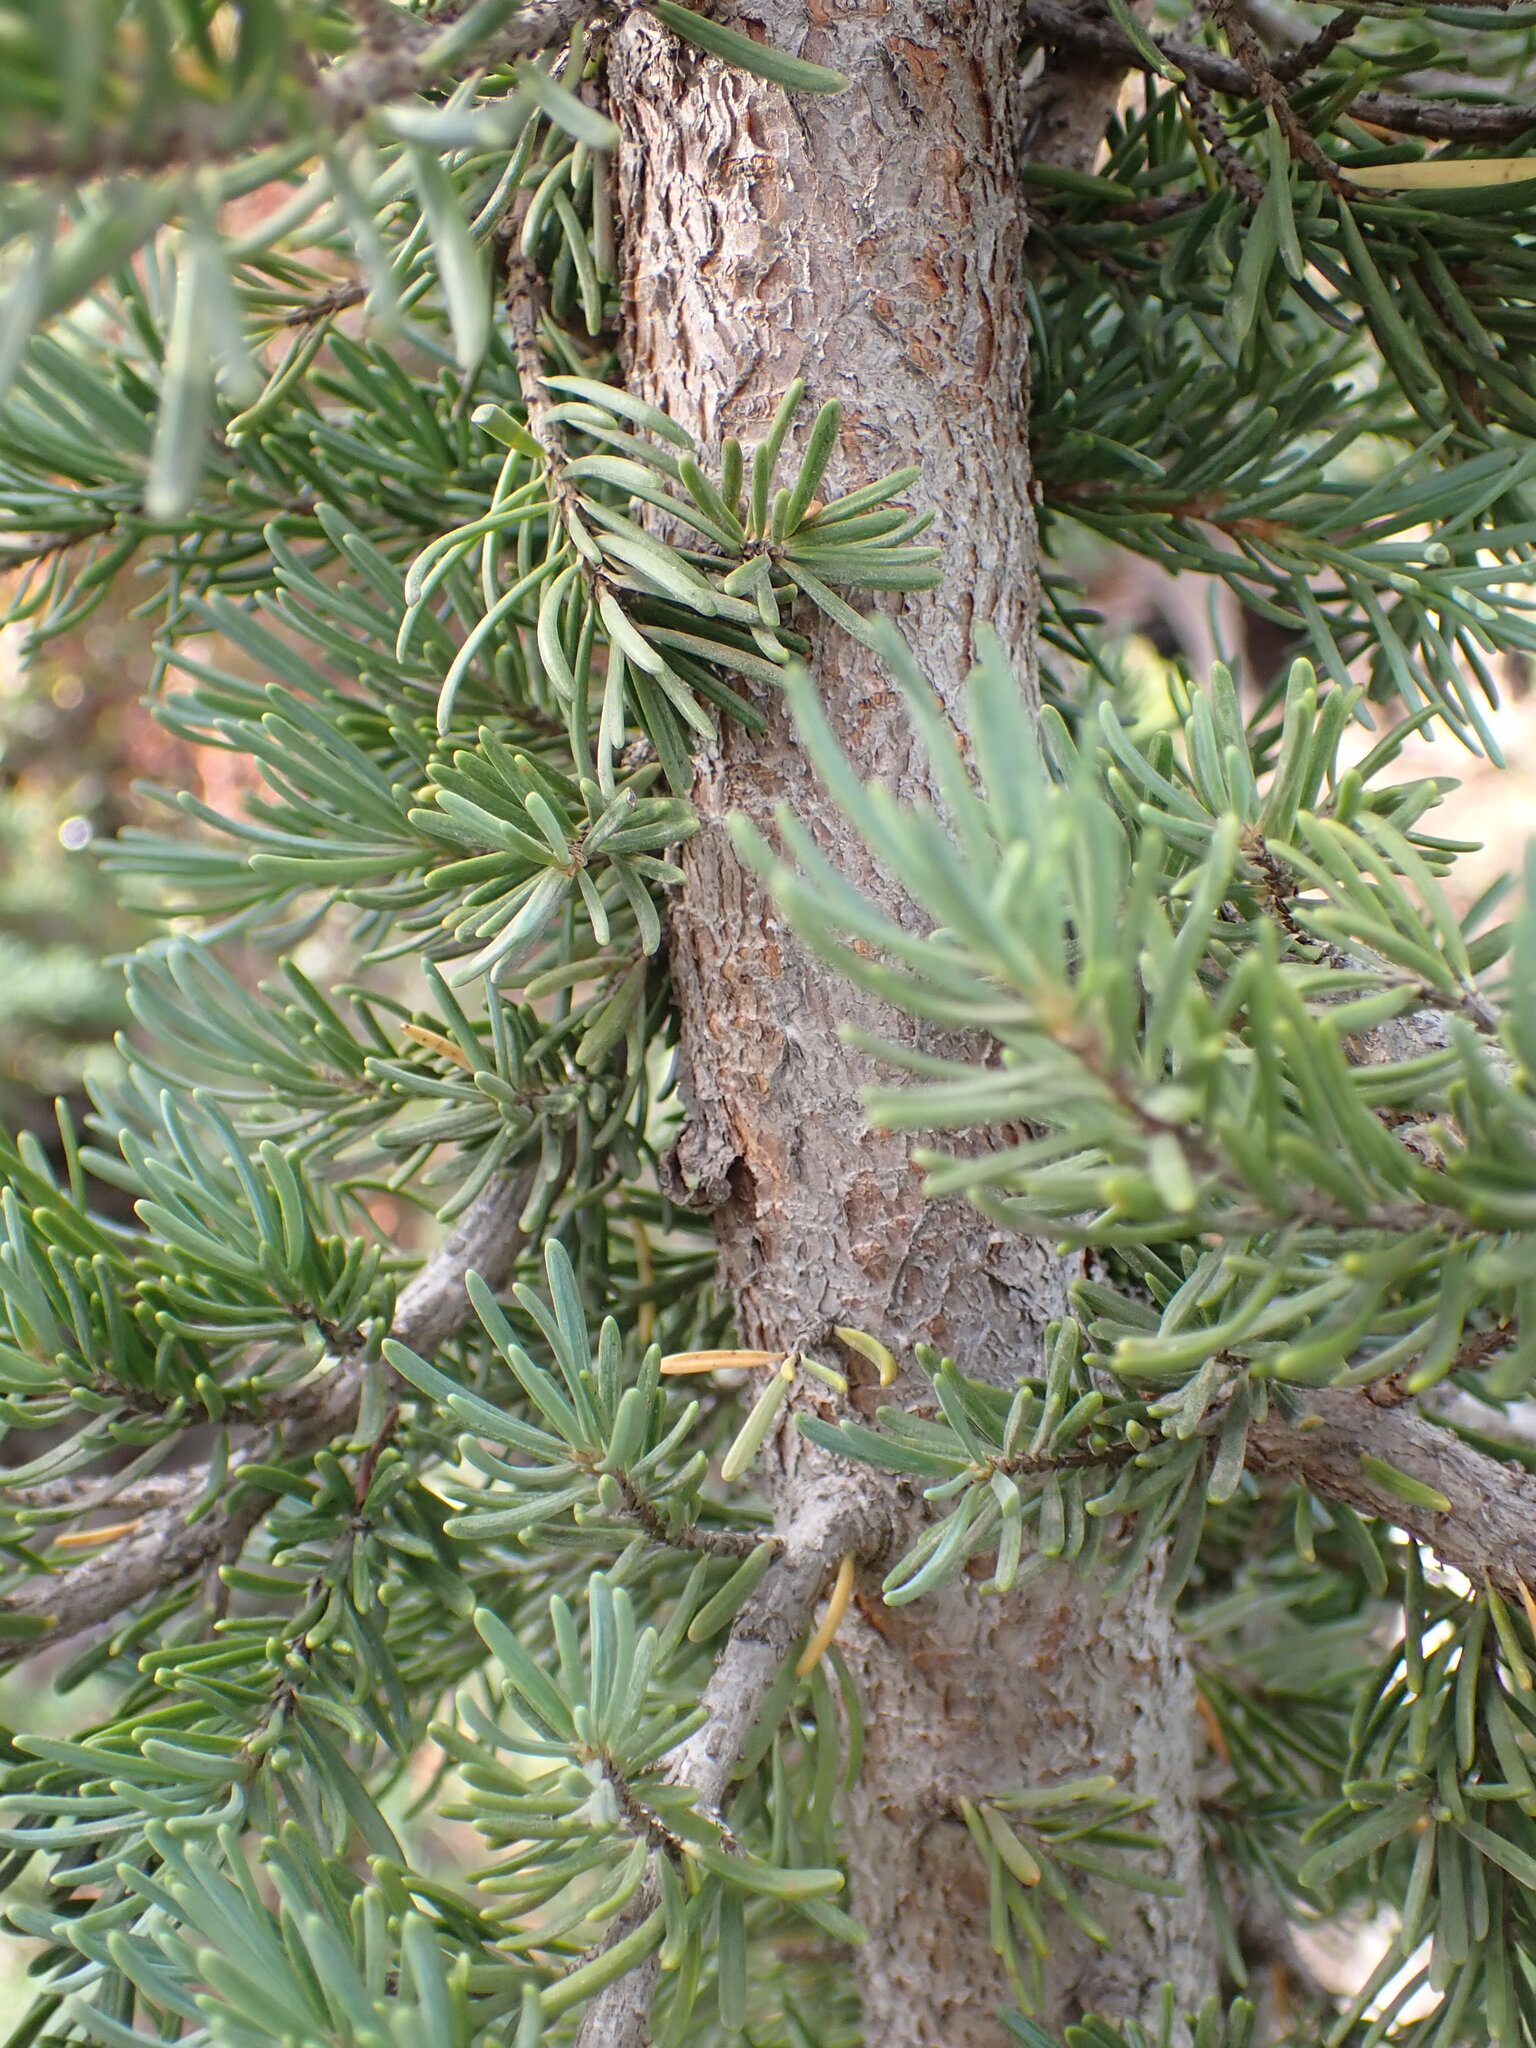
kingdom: Plantae
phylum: Tracheophyta
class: Pinopsida
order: Pinales
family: Pinaceae
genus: Tsuga
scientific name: Tsuga mertensiana
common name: Mountain hemlock
